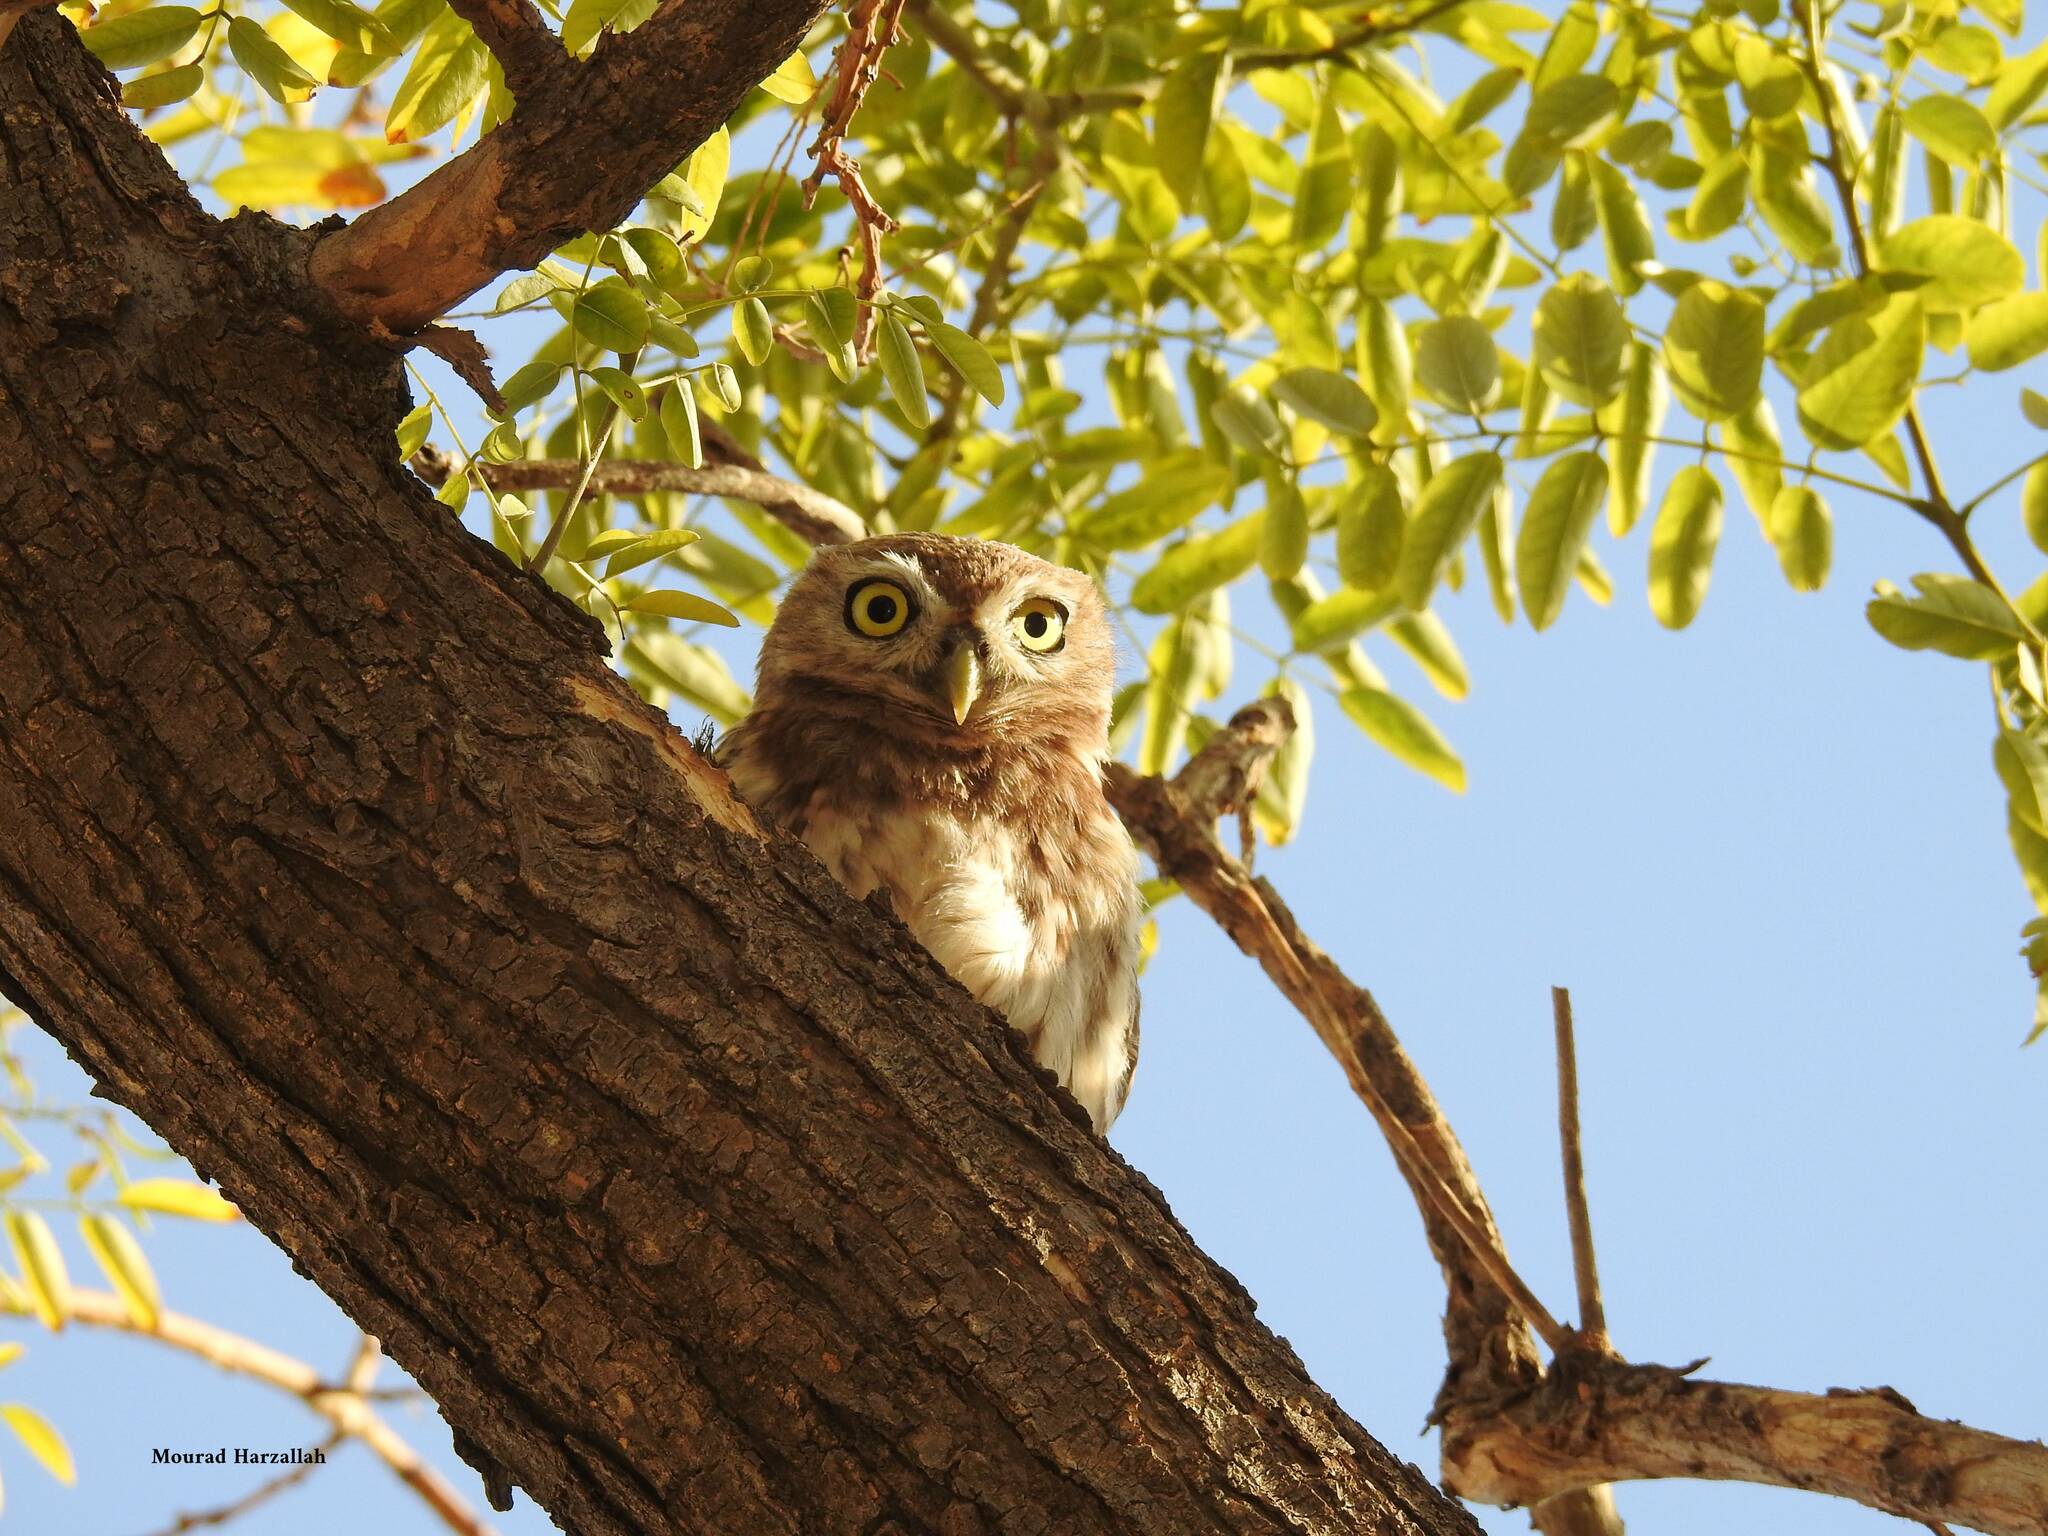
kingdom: Animalia
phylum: Chordata
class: Aves
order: Strigiformes
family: Strigidae
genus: Athene
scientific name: Athene noctua
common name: Little owl
